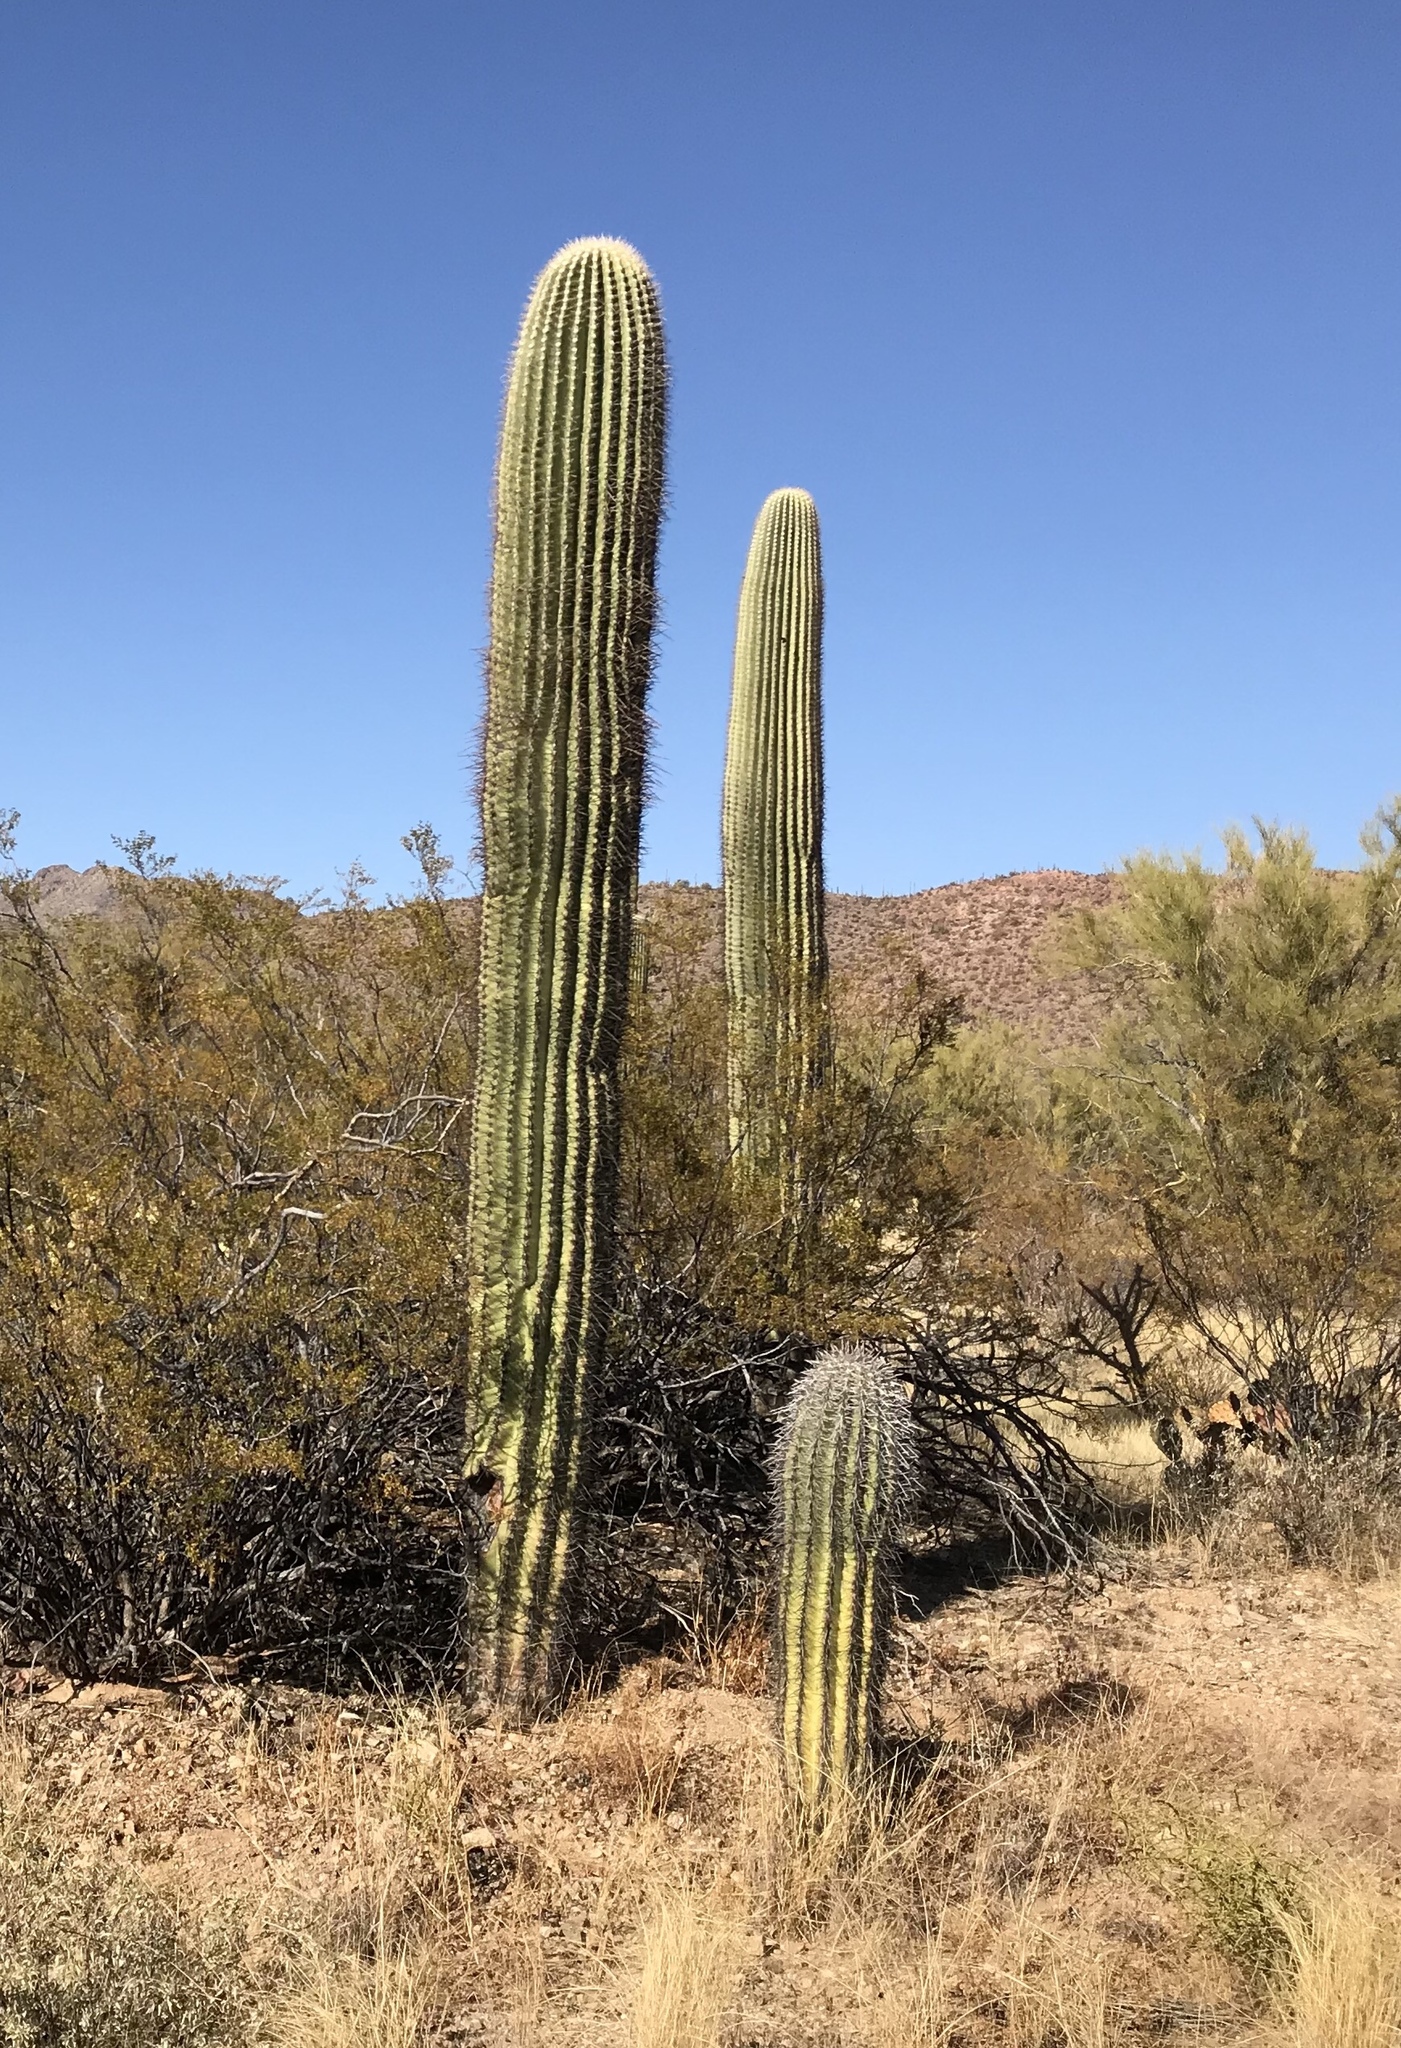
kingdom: Plantae
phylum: Tracheophyta
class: Magnoliopsida
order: Caryophyllales
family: Cactaceae
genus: Carnegiea
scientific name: Carnegiea gigantea
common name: Saguaro
